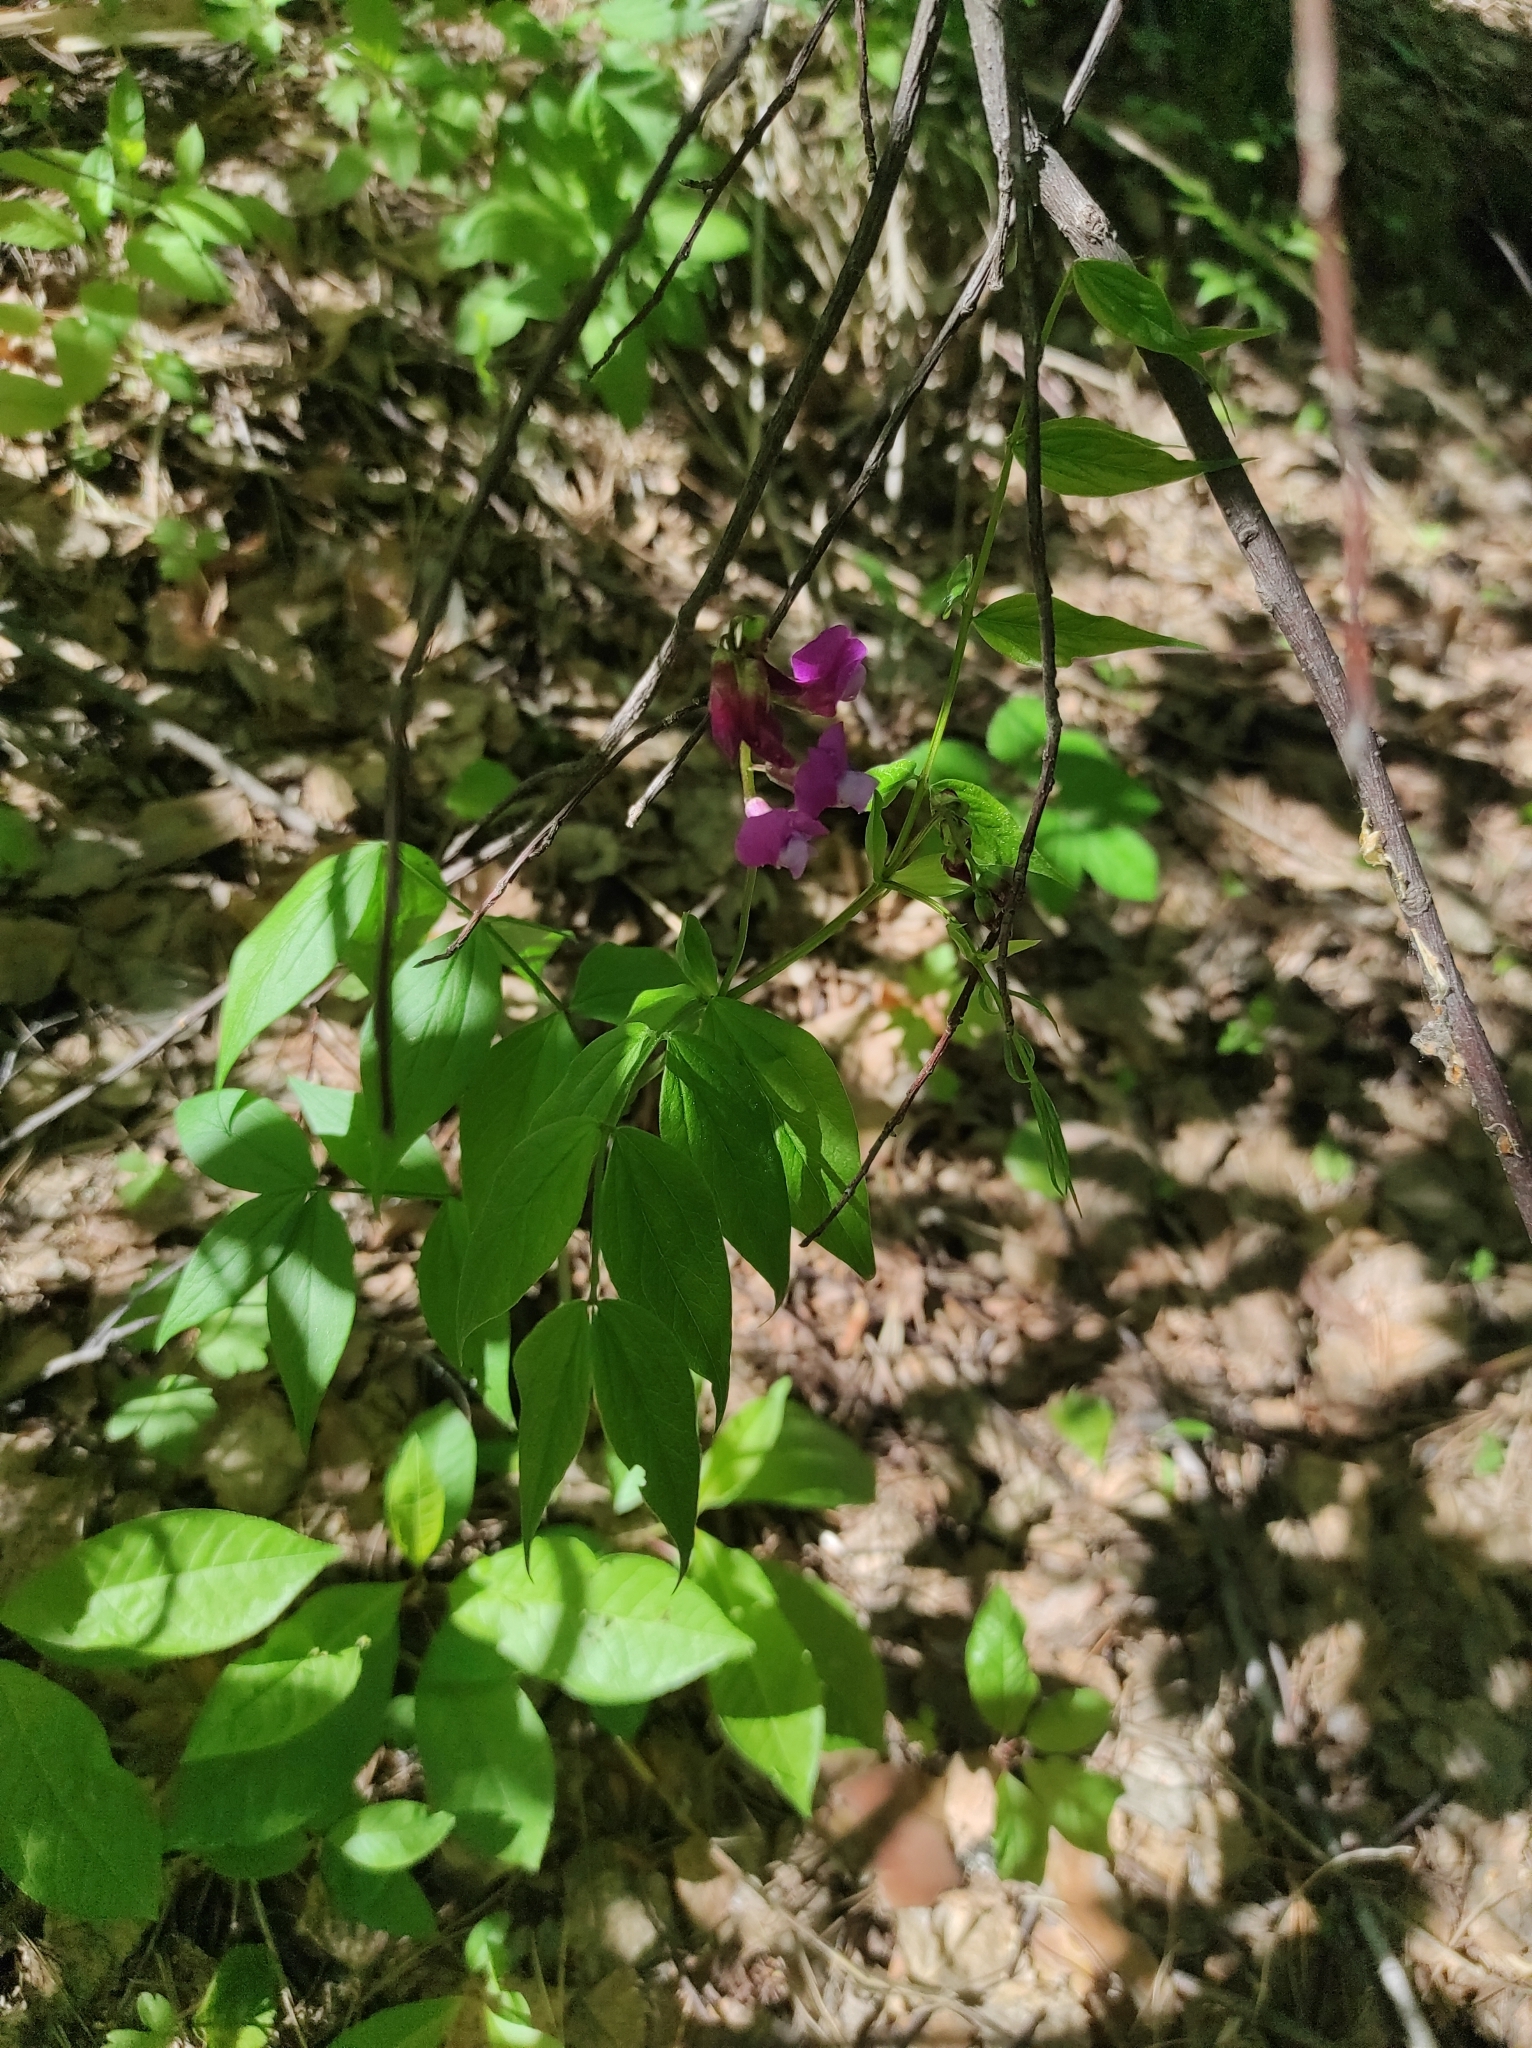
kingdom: Plantae
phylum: Tracheophyta
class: Magnoliopsida
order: Fabales
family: Fabaceae
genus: Lathyrus
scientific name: Lathyrus vernus
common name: Spring pea
